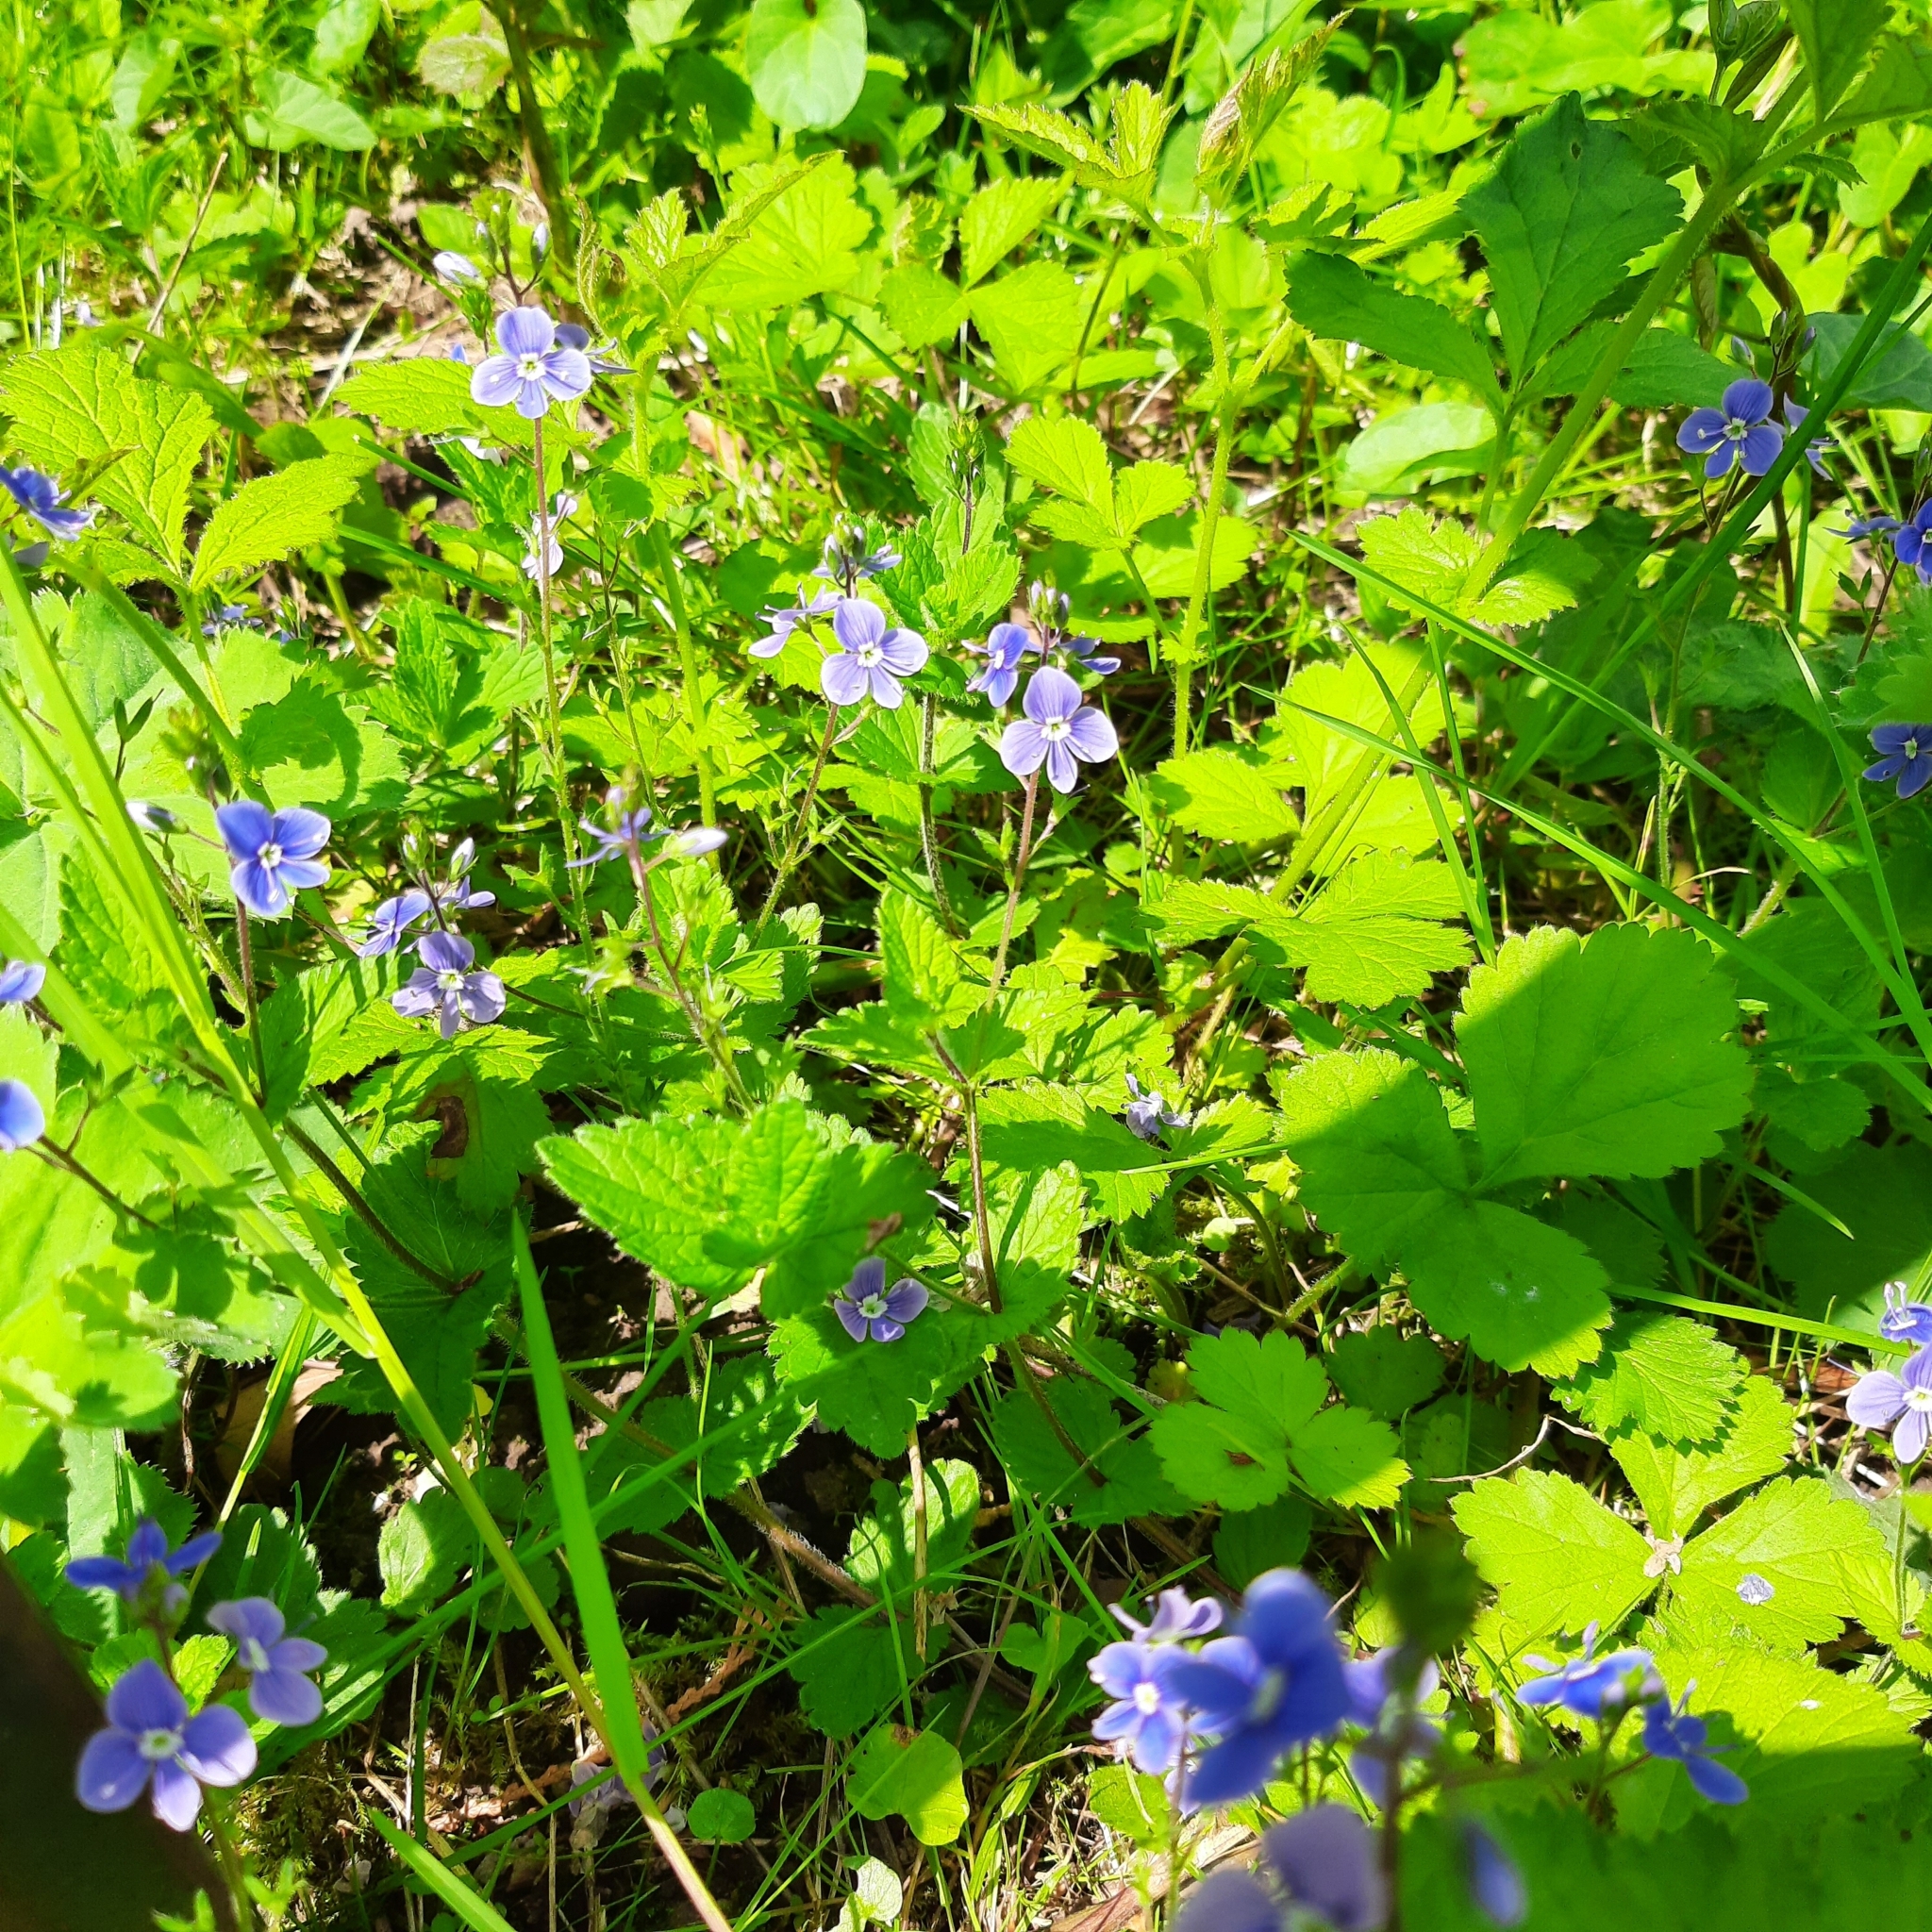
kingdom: Plantae
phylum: Tracheophyta
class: Magnoliopsida
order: Lamiales
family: Plantaginaceae
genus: Veronica
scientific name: Veronica chamaedrys
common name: Germander speedwell
